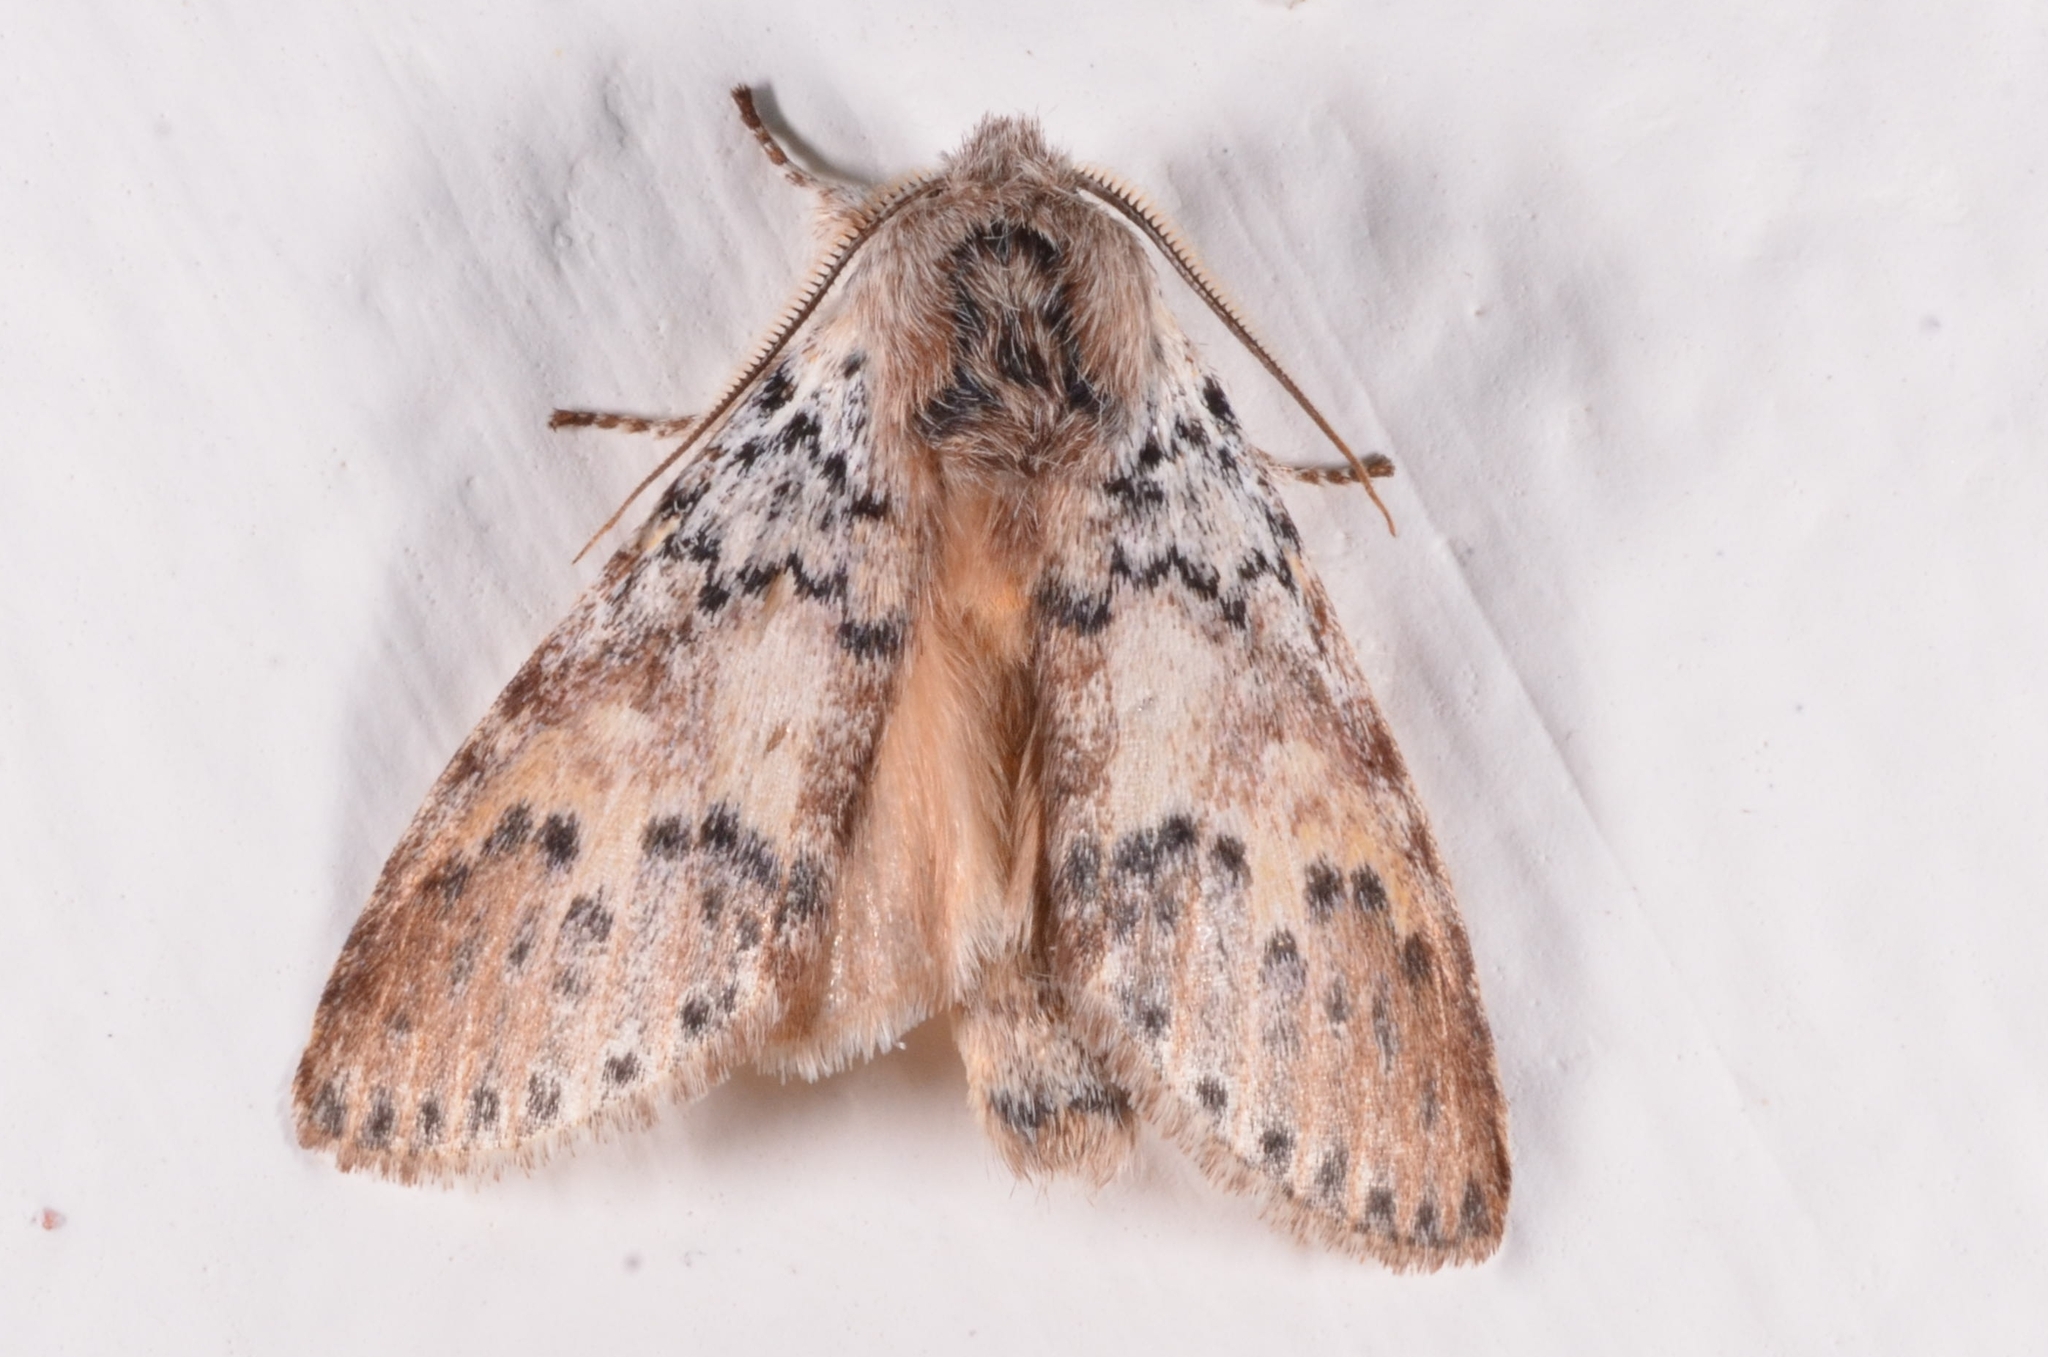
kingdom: Animalia
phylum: Arthropoda
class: Insecta
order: Lepidoptera
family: Notodontidae
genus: Disparia
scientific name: Disparia maculata
